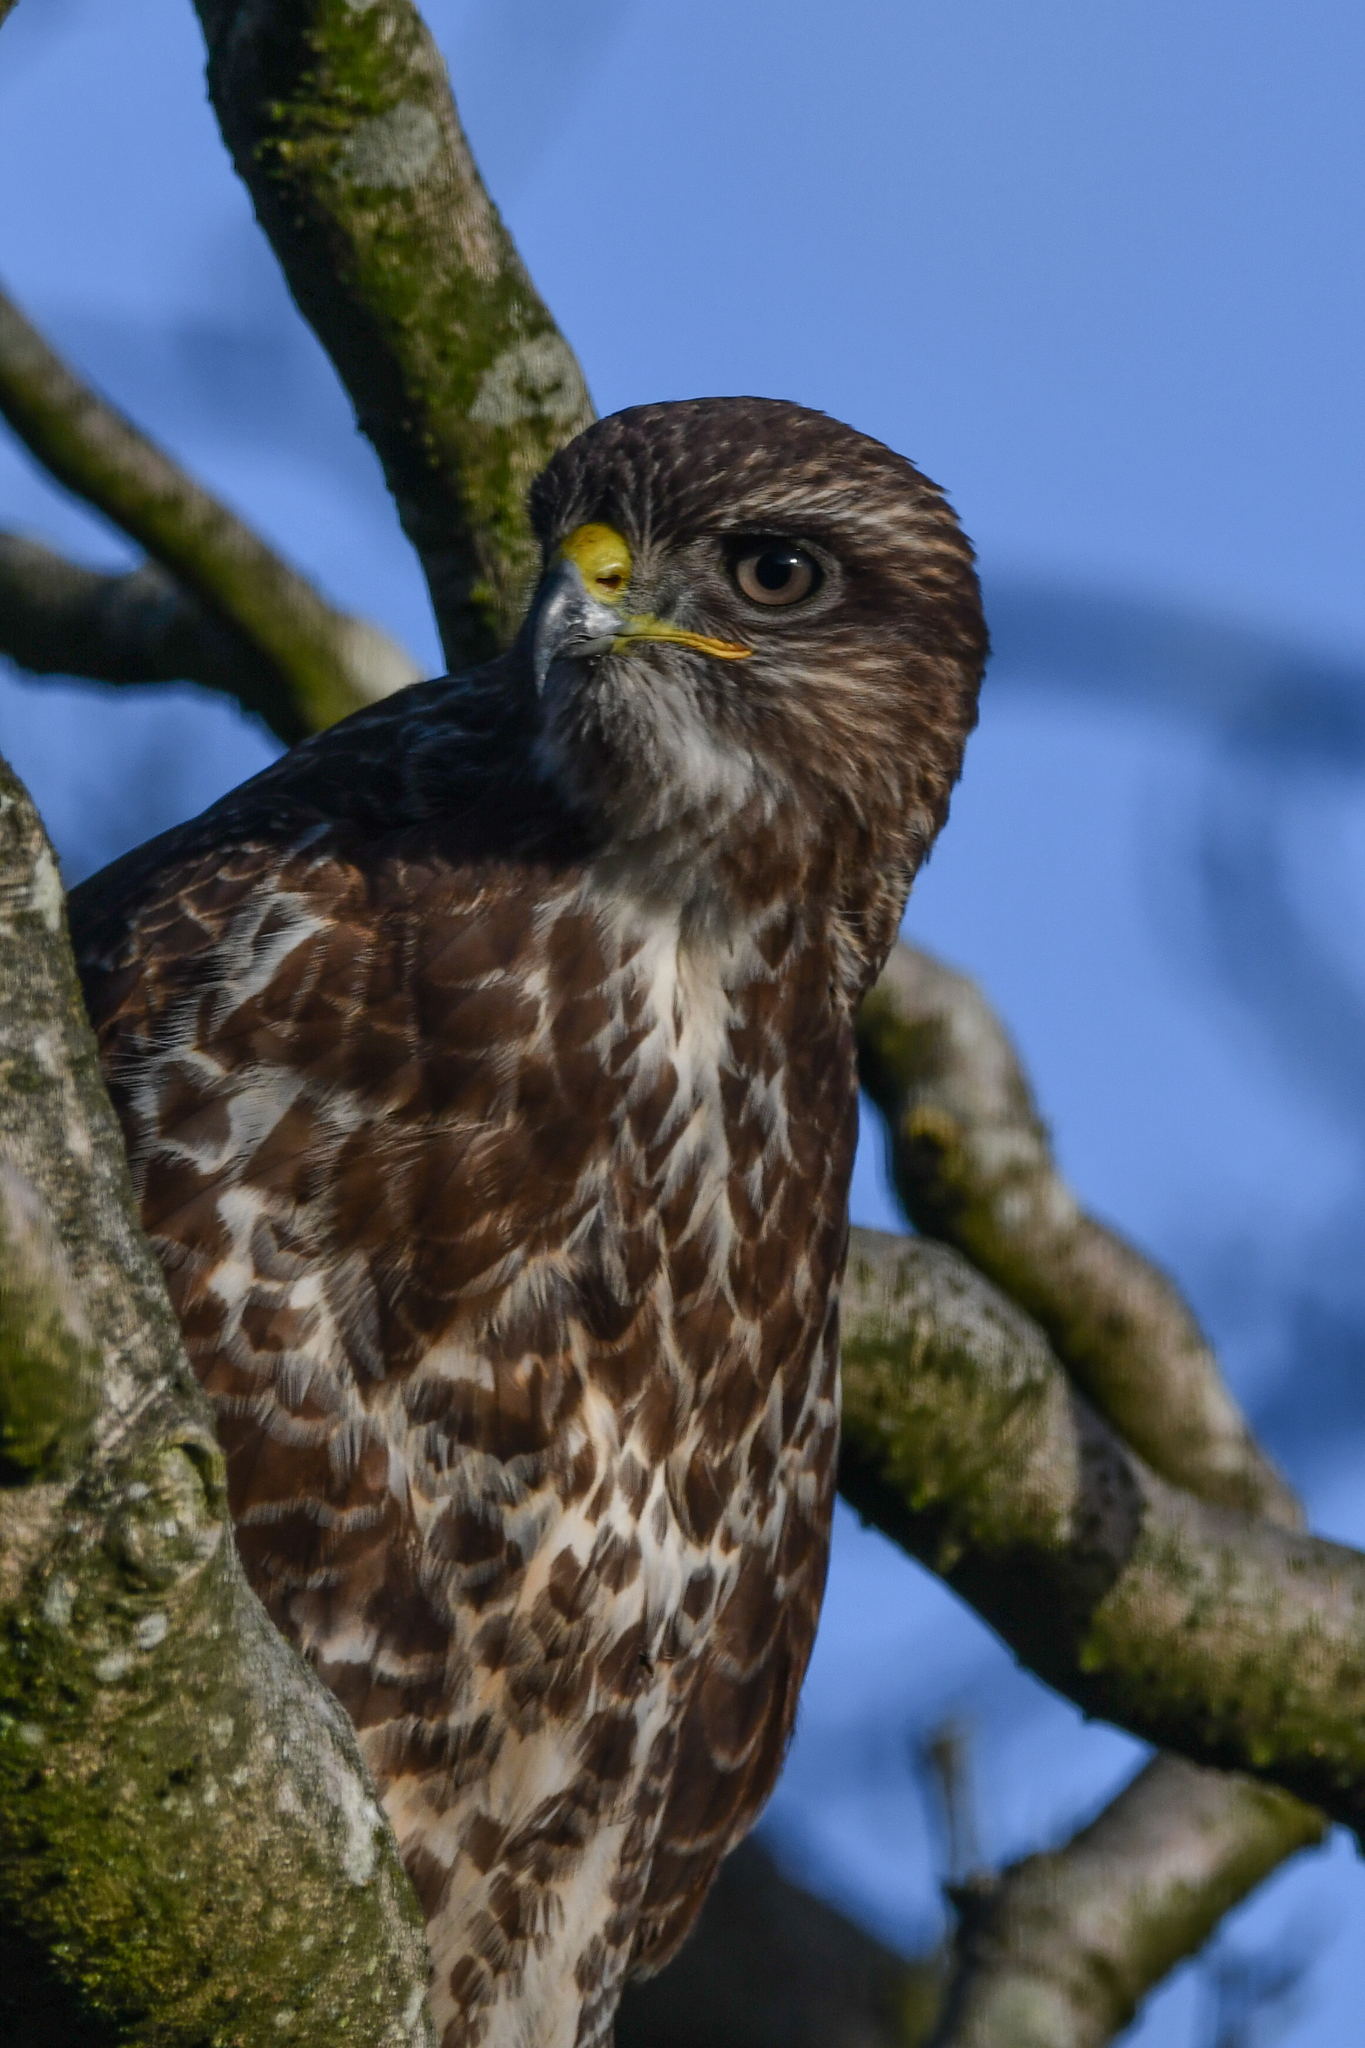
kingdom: Animalia
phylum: Chordata
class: Aves
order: Accipitriformes
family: Accipitridae
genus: Buteo
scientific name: Buteo buteo
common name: Common buzzard
